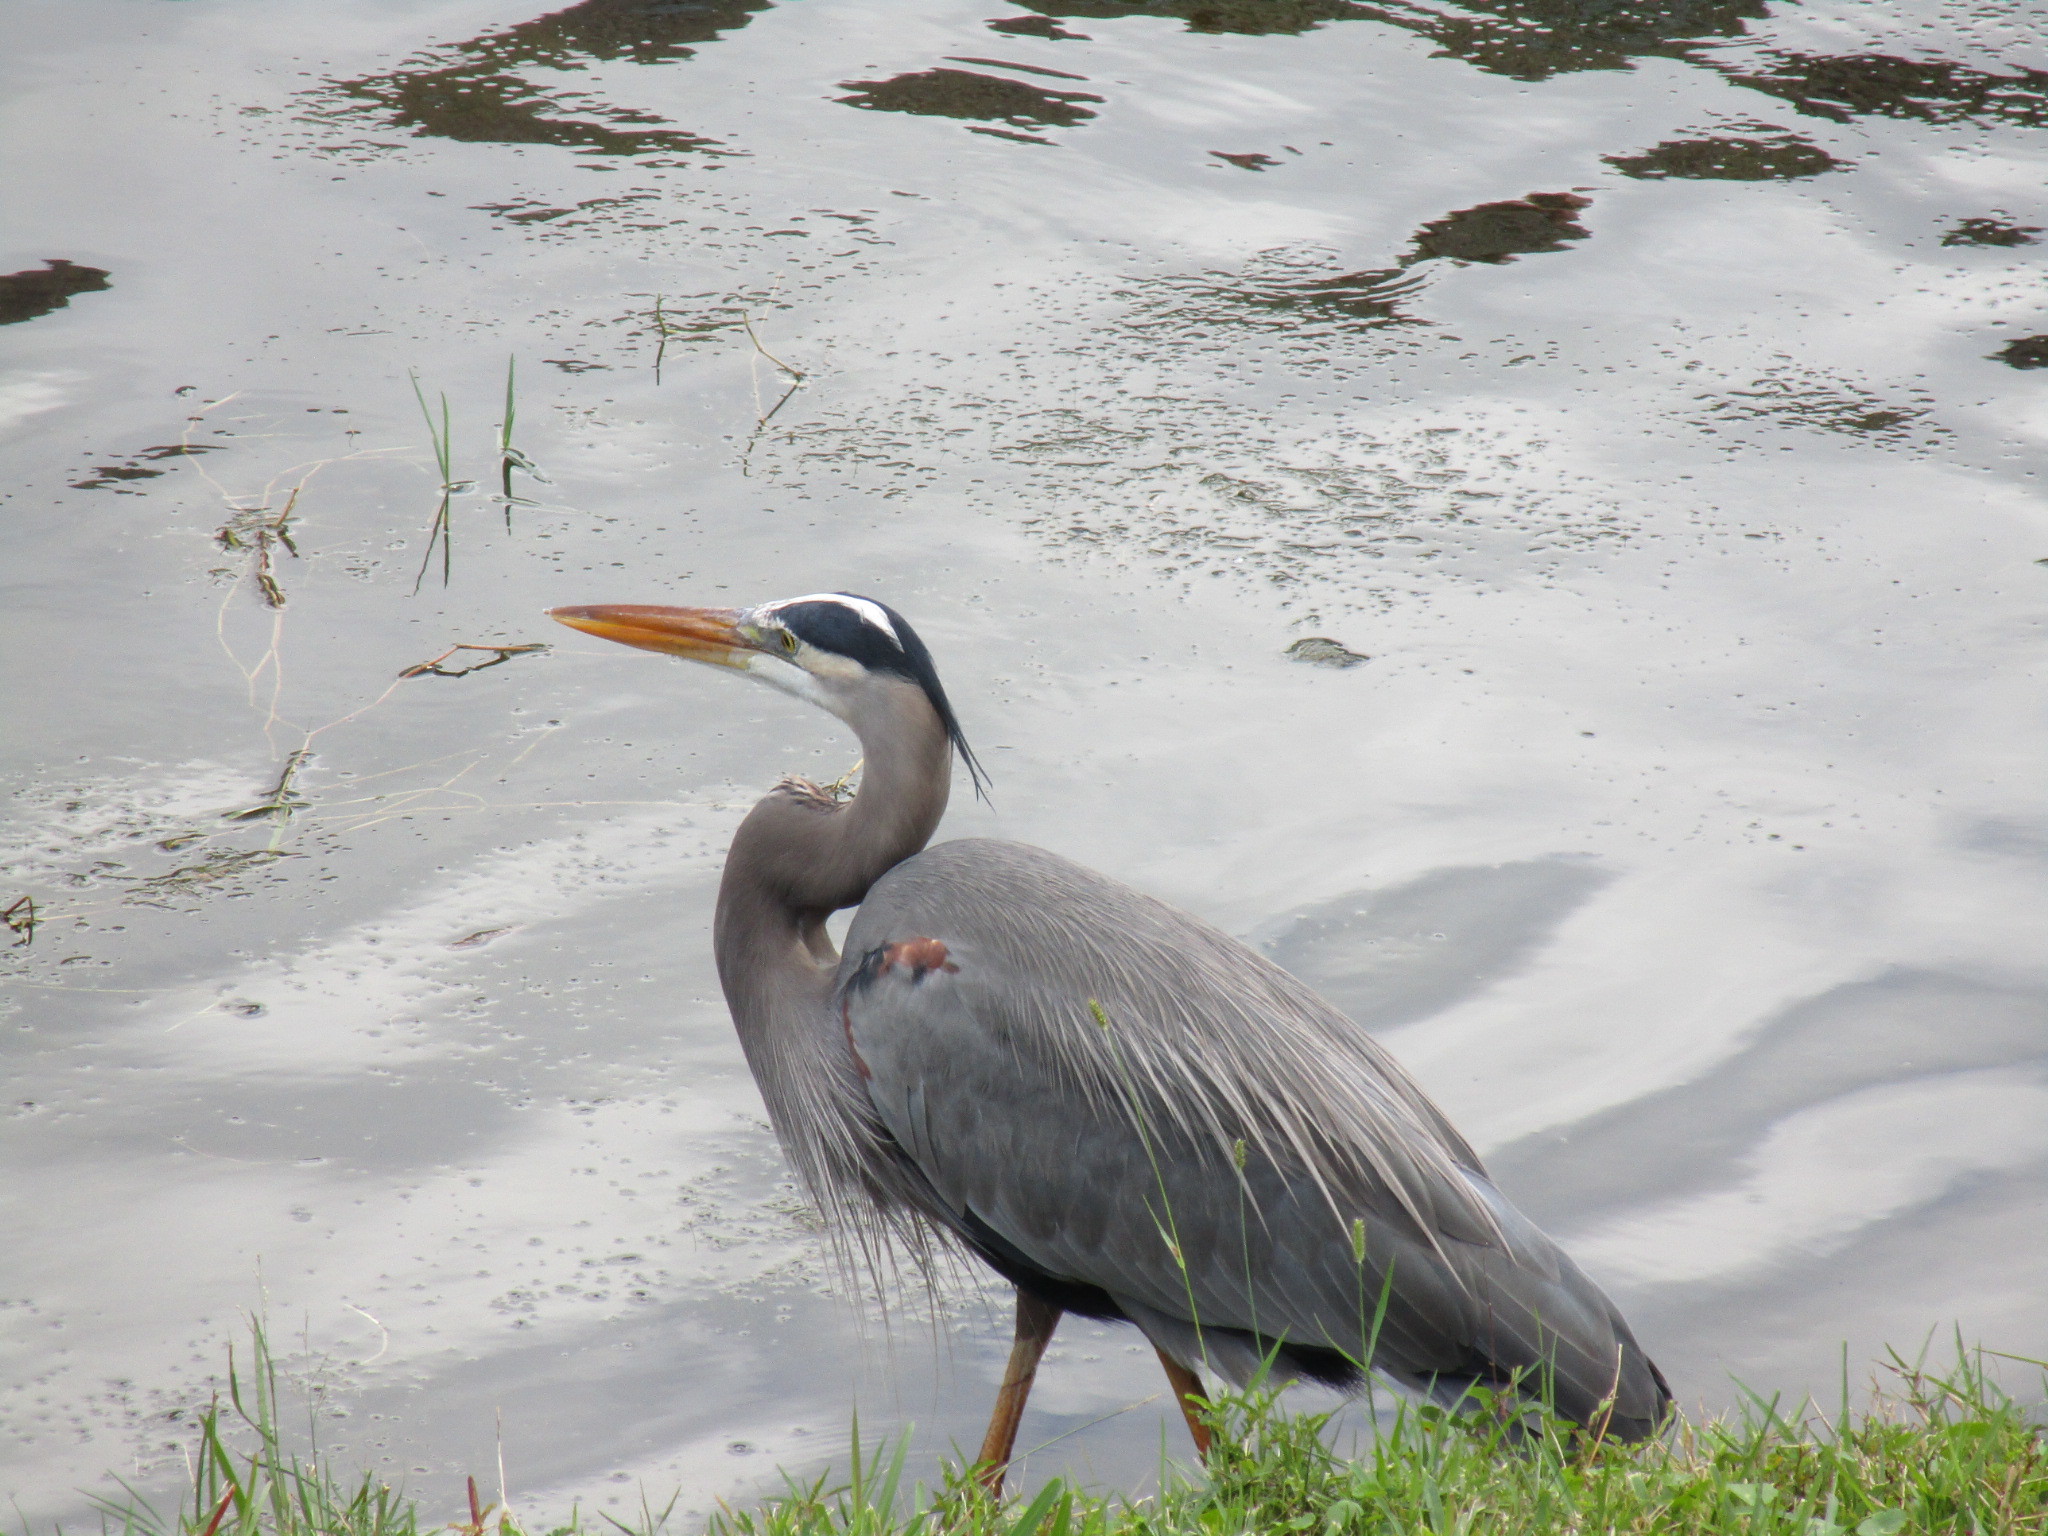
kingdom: Animalia
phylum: Chordata
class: Aves
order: Pelecaniformes
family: Ardeidae
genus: Ardea
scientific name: Ardea herodias
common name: Great blue heron
